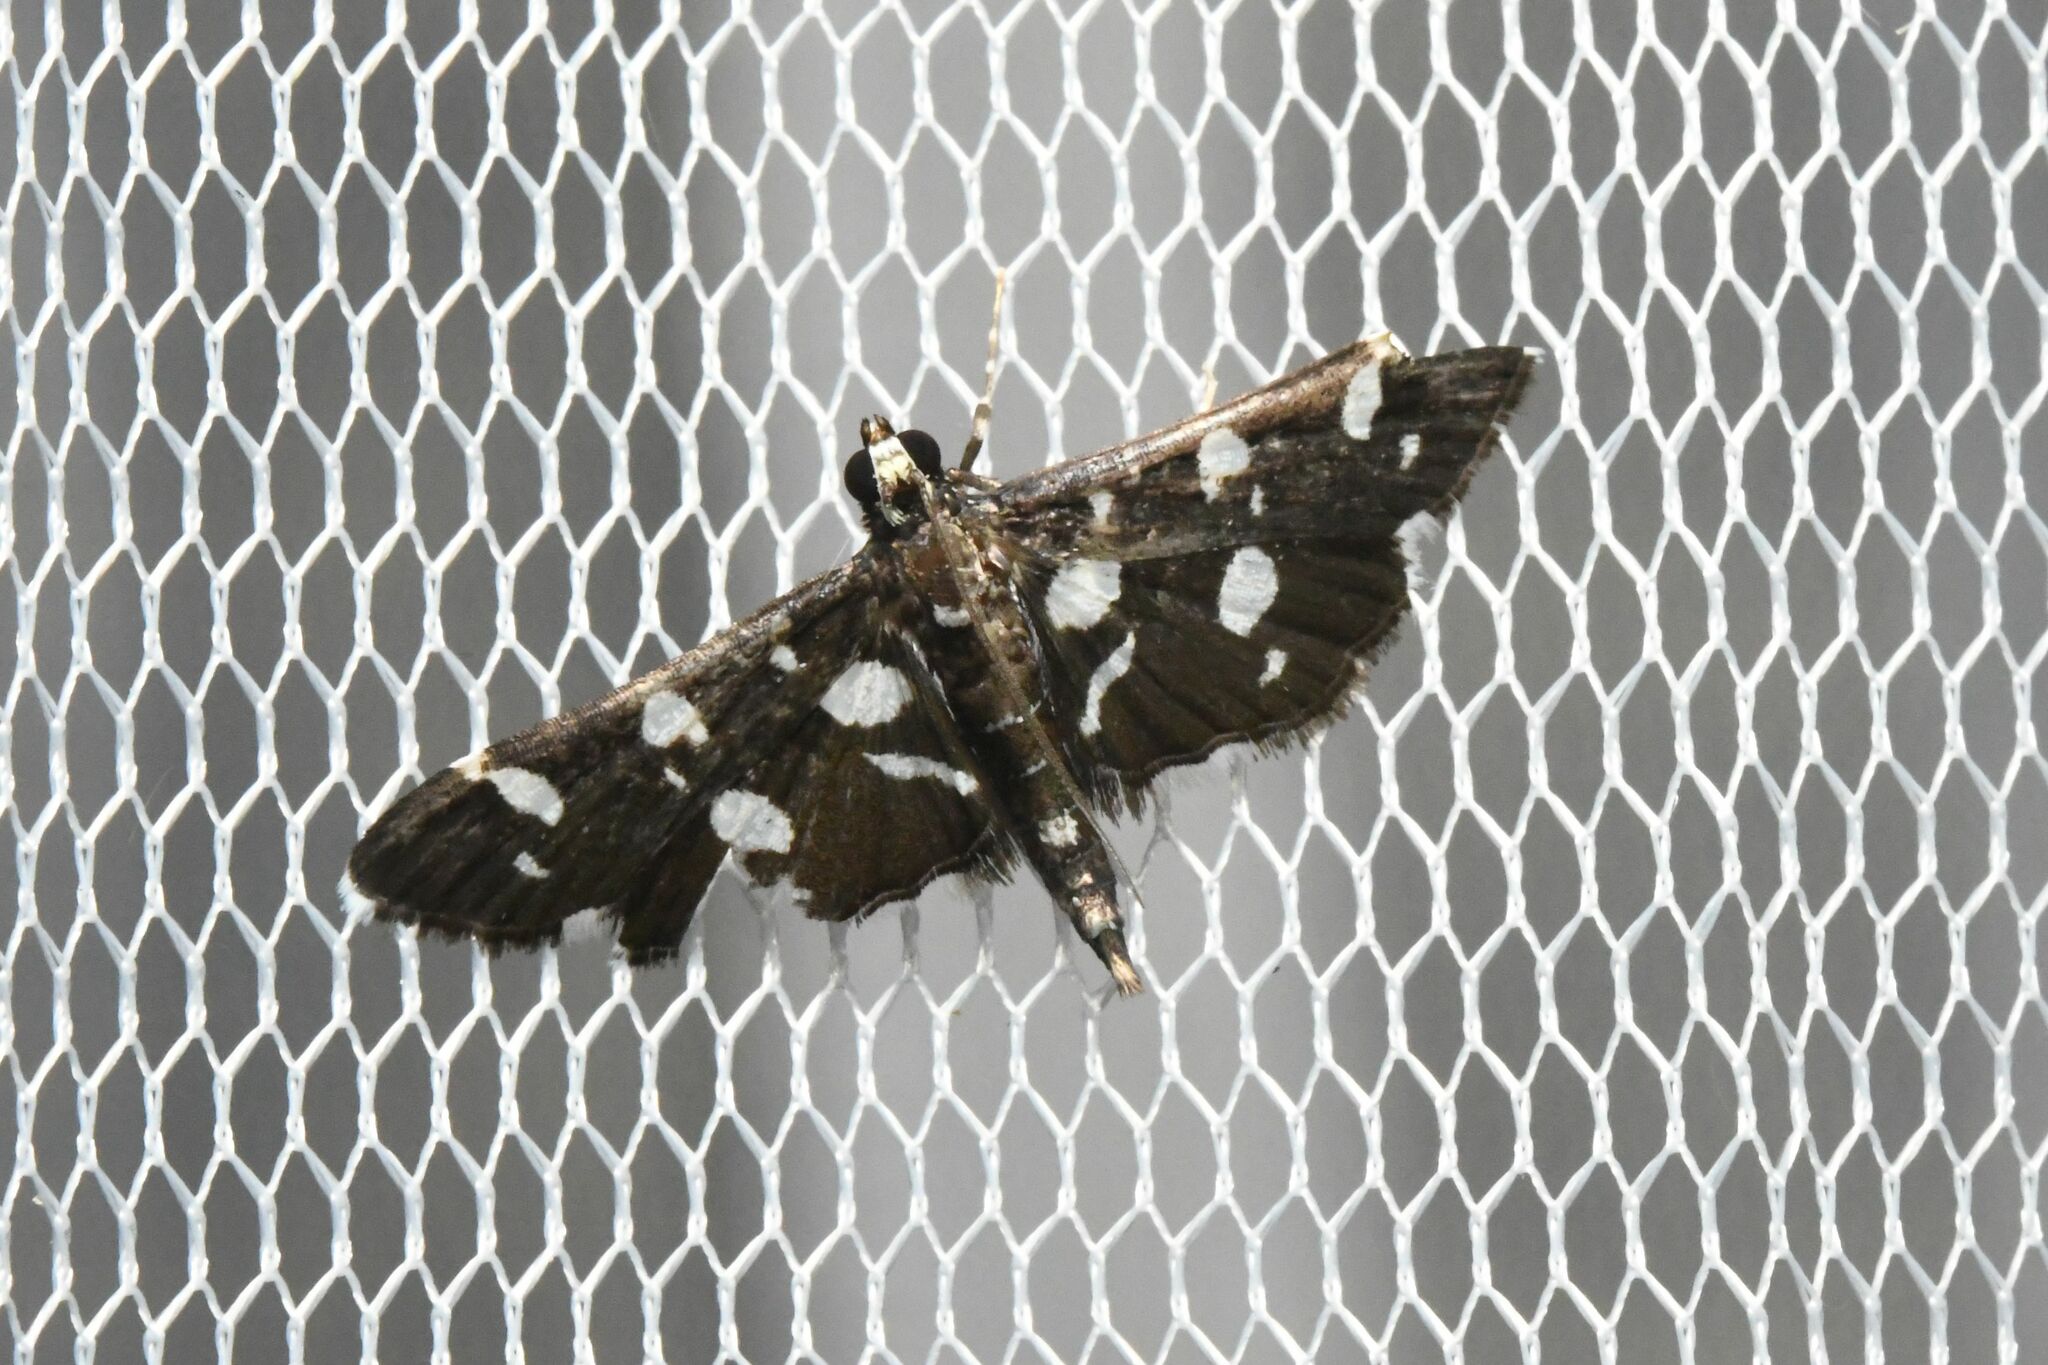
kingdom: Animalia
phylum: Arthropoda
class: Insecta
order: Lepidoptera
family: Crambidae
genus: Bocchoris
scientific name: Bocchoris inspersalis
